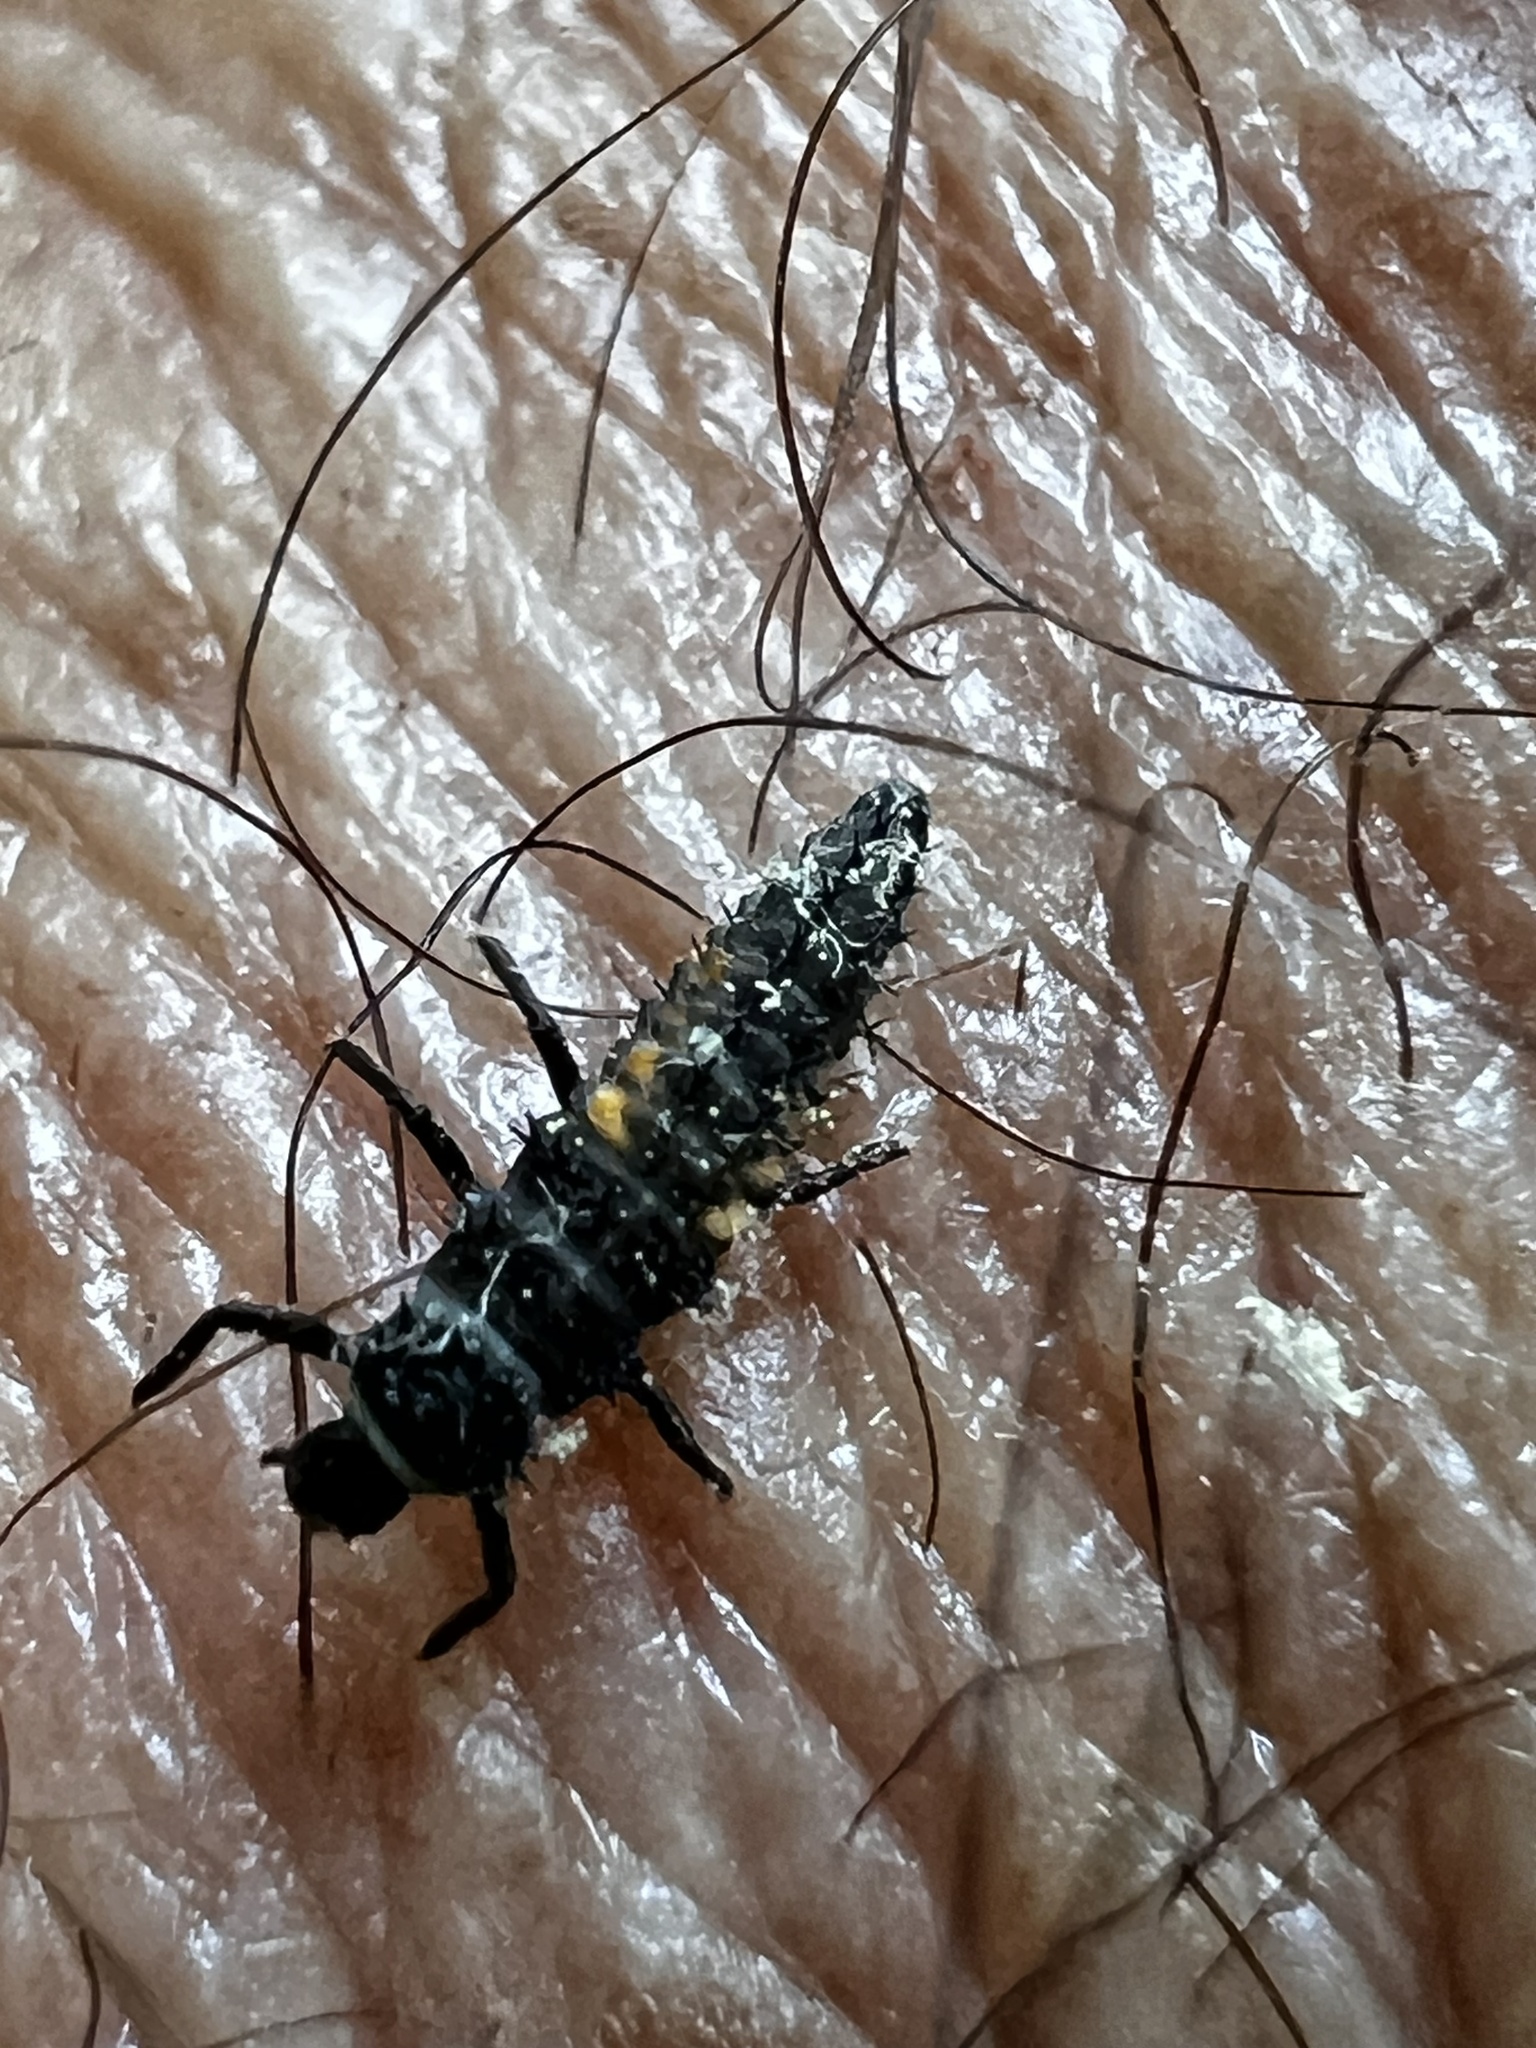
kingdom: Animalia
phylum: Arthropoda
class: Insecta
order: Coleoptera
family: Coccinellidae
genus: Harmonia
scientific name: Harmonia axyridis
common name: Harlequin ladybird
